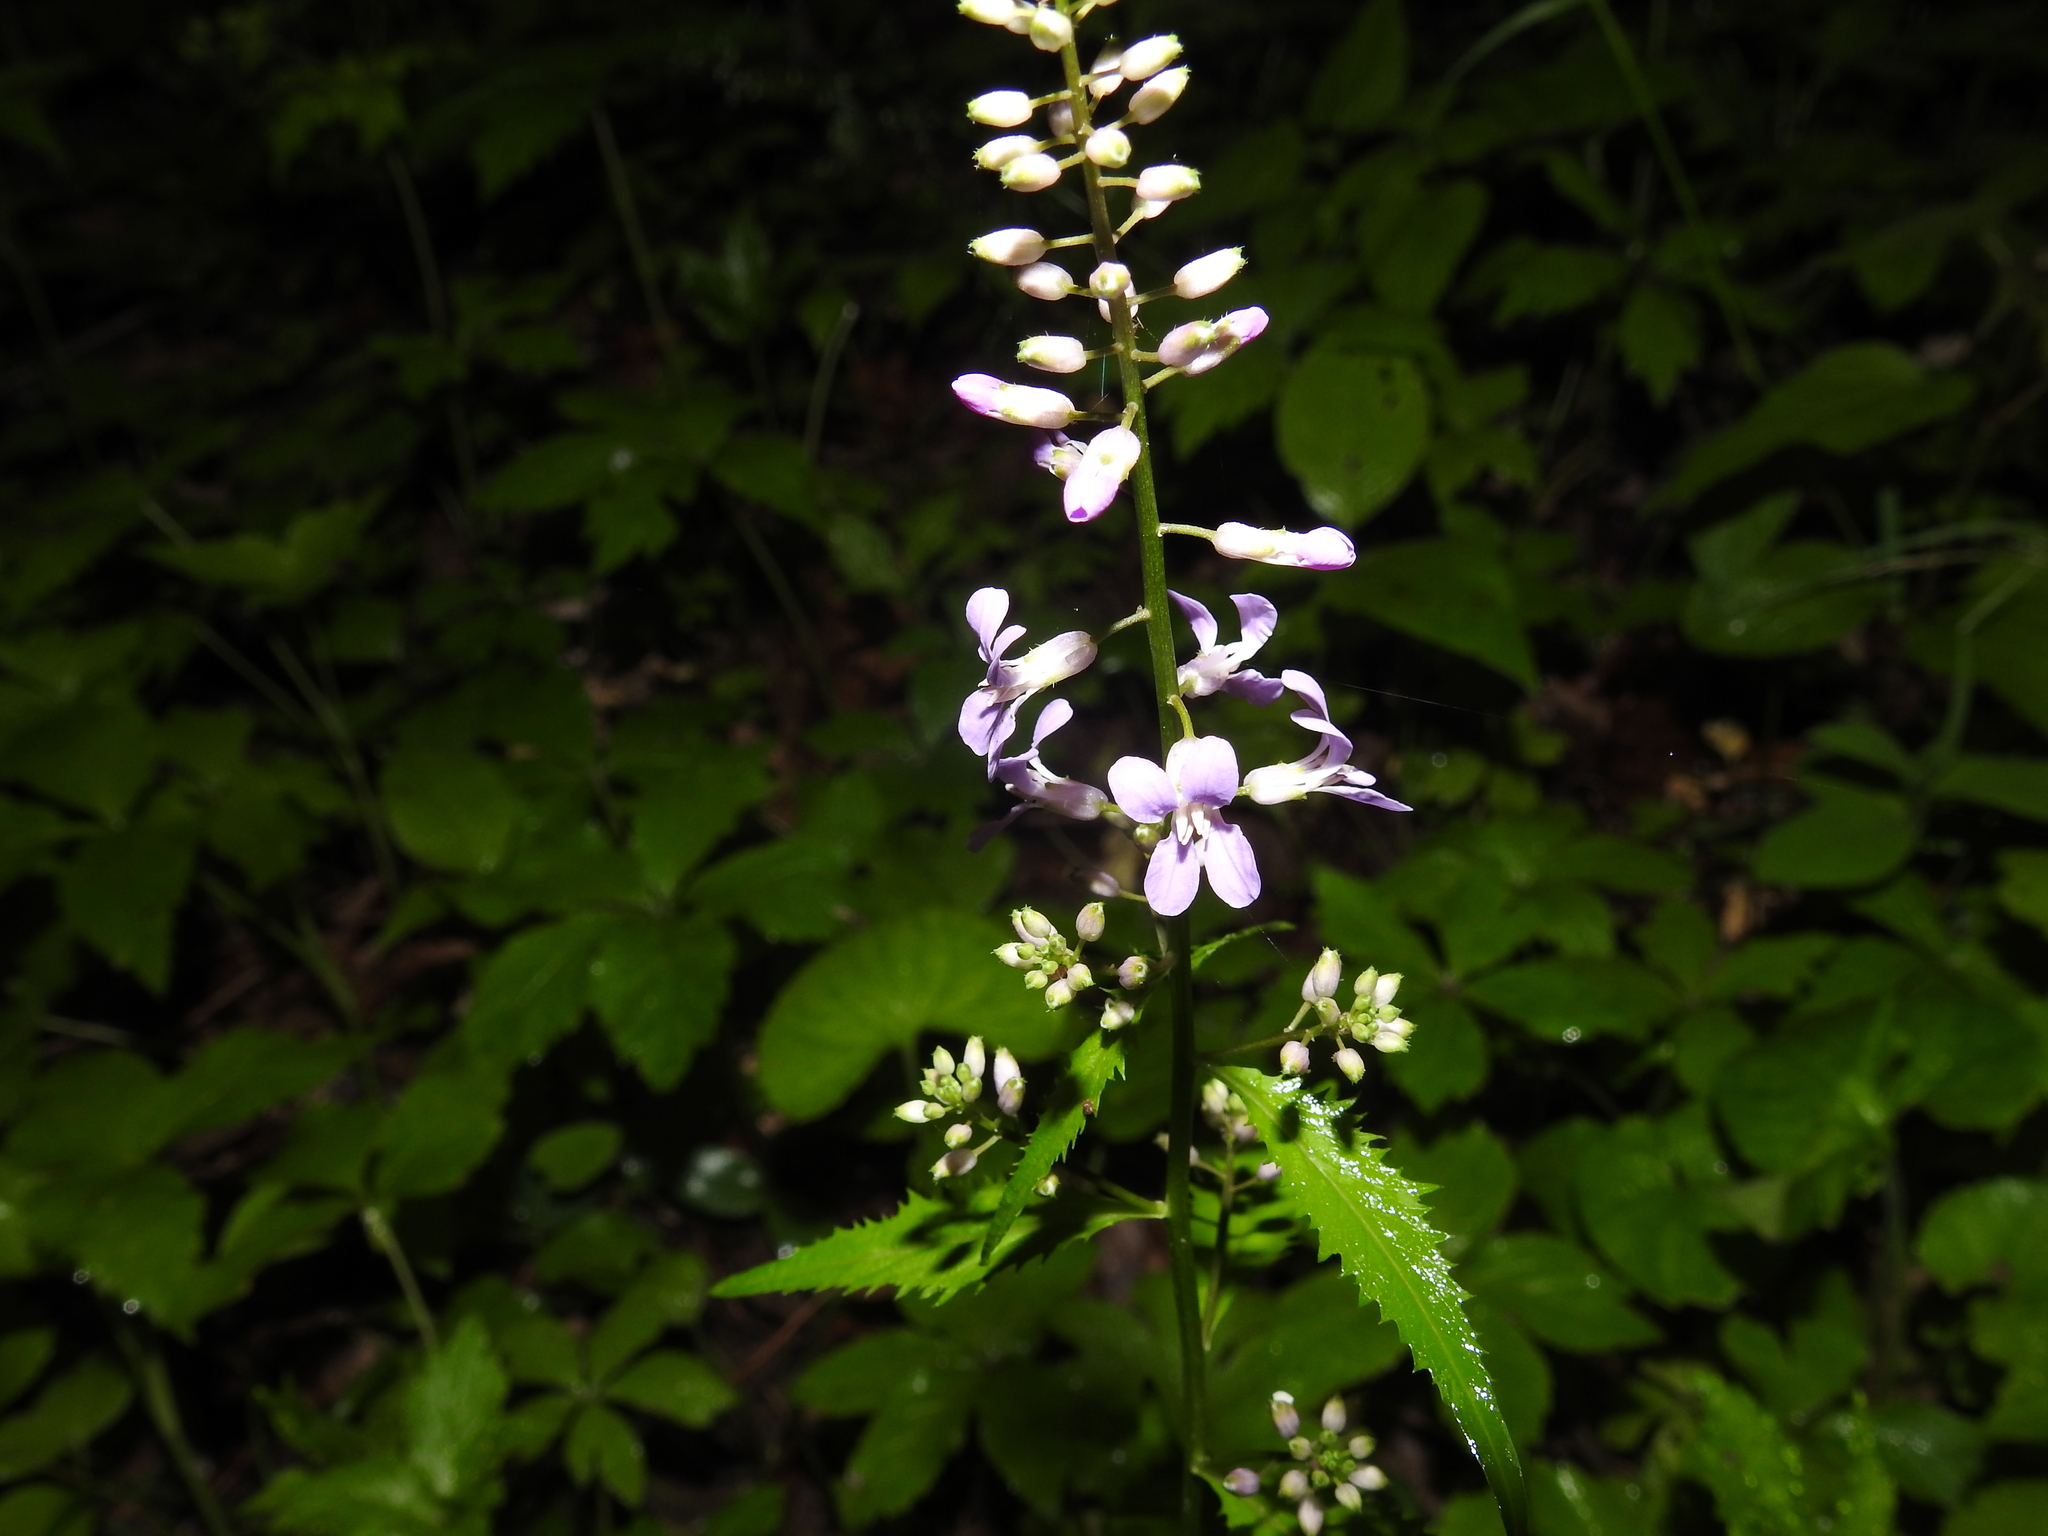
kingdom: Plantae
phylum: Tracheophyta
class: Magnoliopsida
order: Brassicales
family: Brassicaceae
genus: Iodanthus
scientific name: Iodanthus pinnatifidus
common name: Violet rocket
